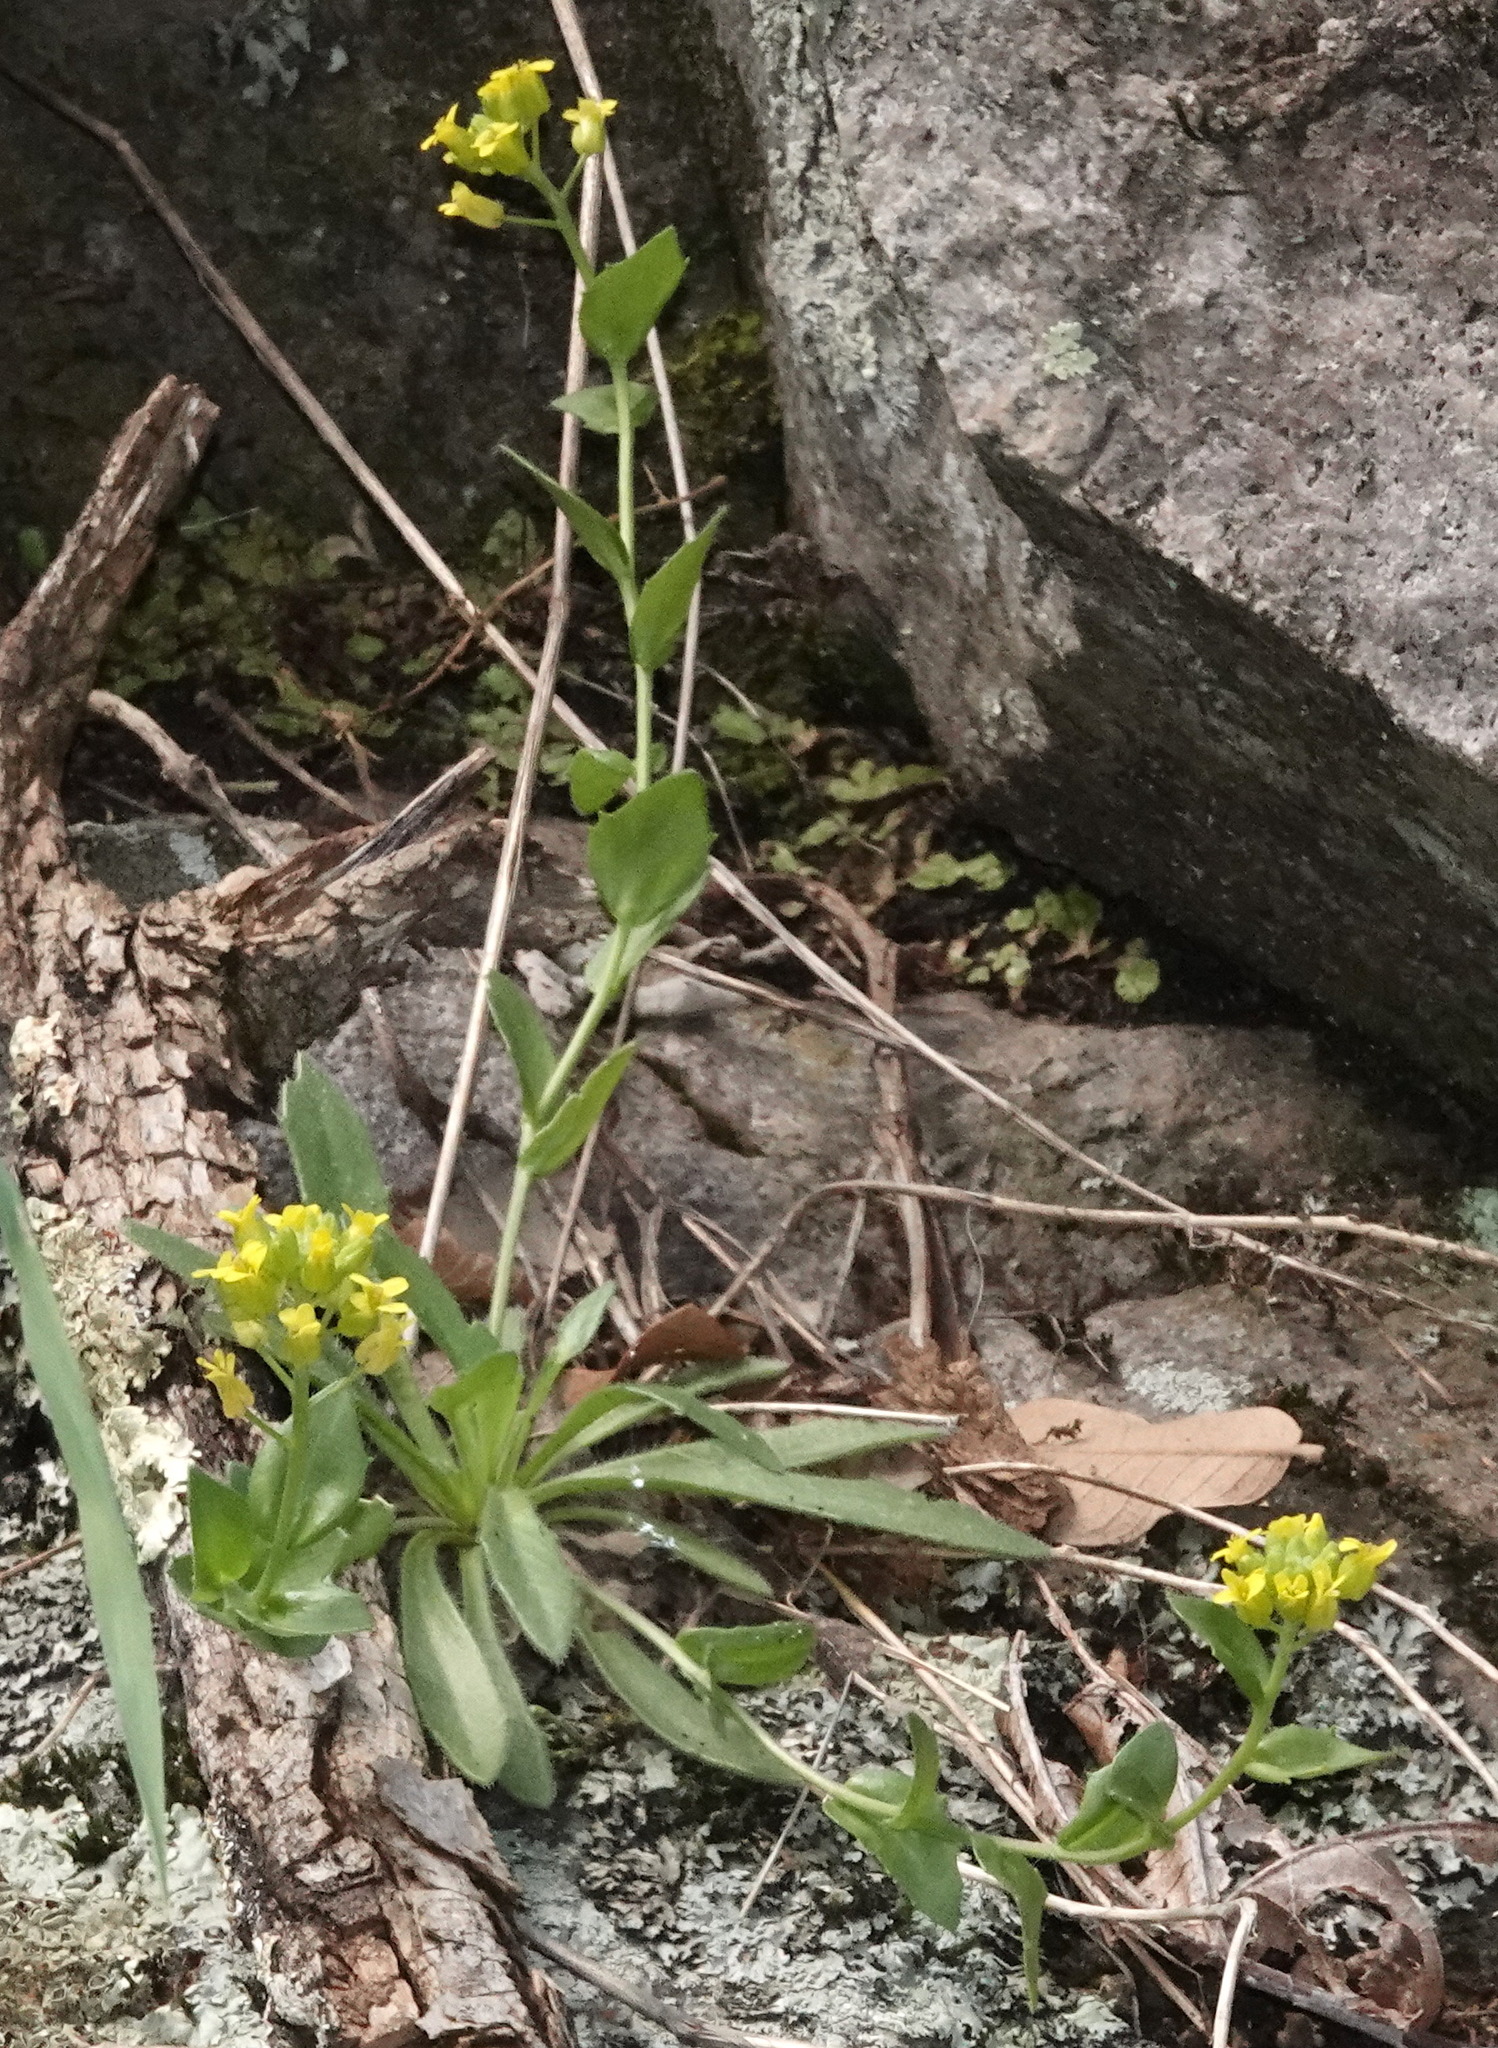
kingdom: Plantae
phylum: Tracheophyta
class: Magnoliopsida
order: Brassicales
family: Brassicaceae
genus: Draba
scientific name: Draba petrophila
